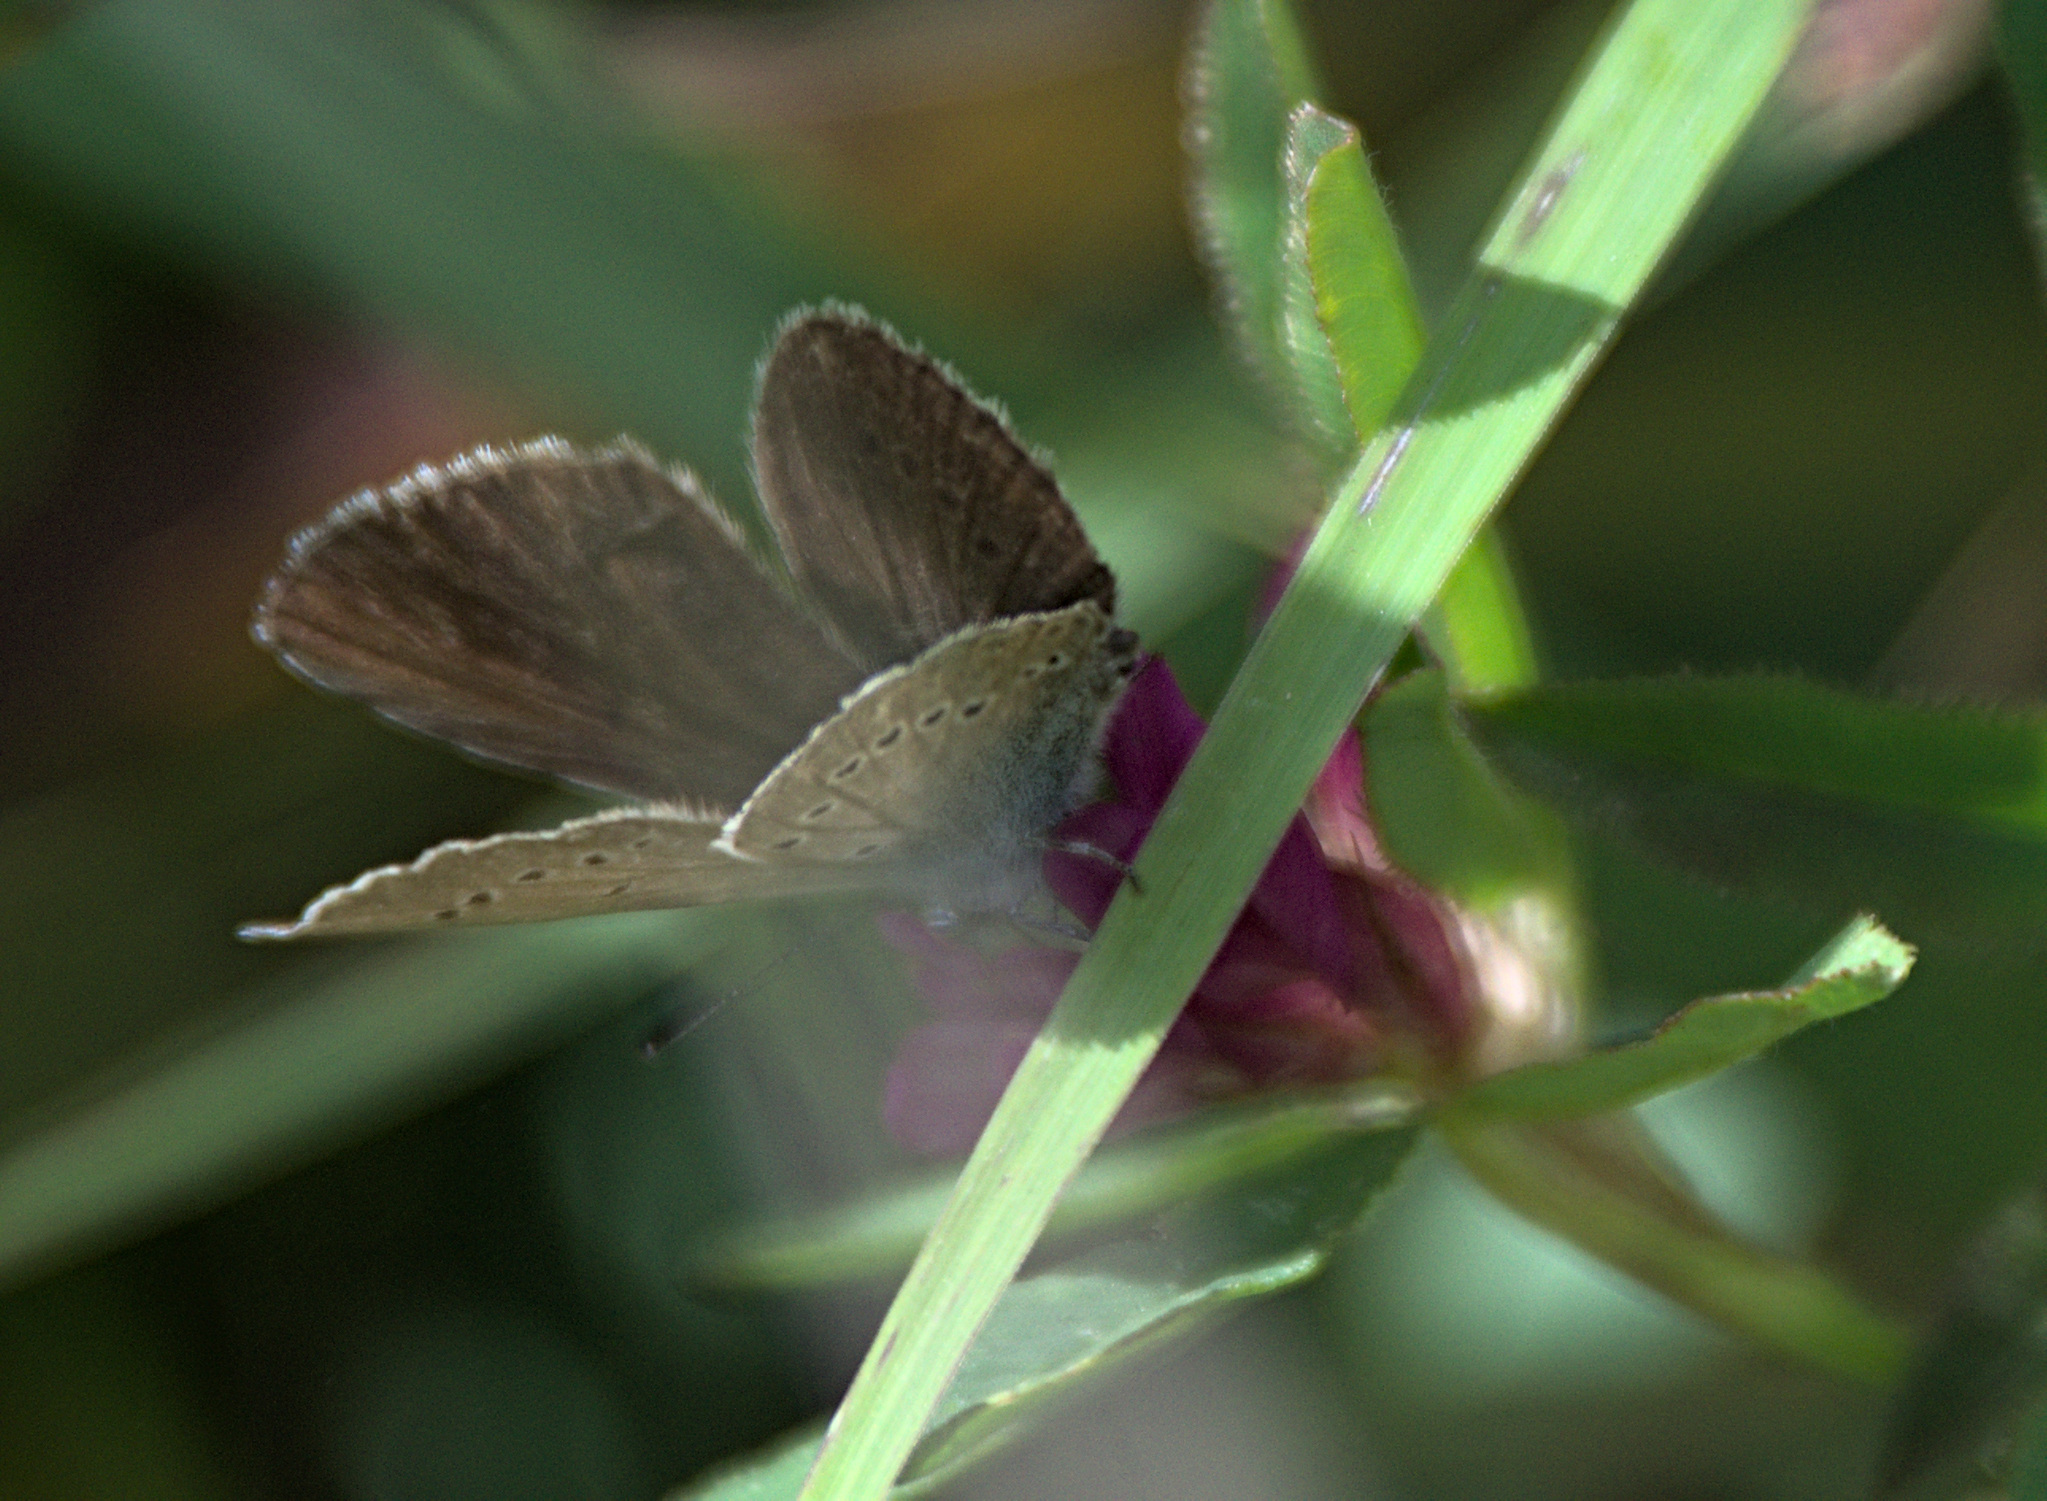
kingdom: Animalia
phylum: Arthropoda
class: Insecta
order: Lepidoptera
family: Lycaenidae
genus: Cyaniris
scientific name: Cyaniris semiargus
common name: Mazarine blue
